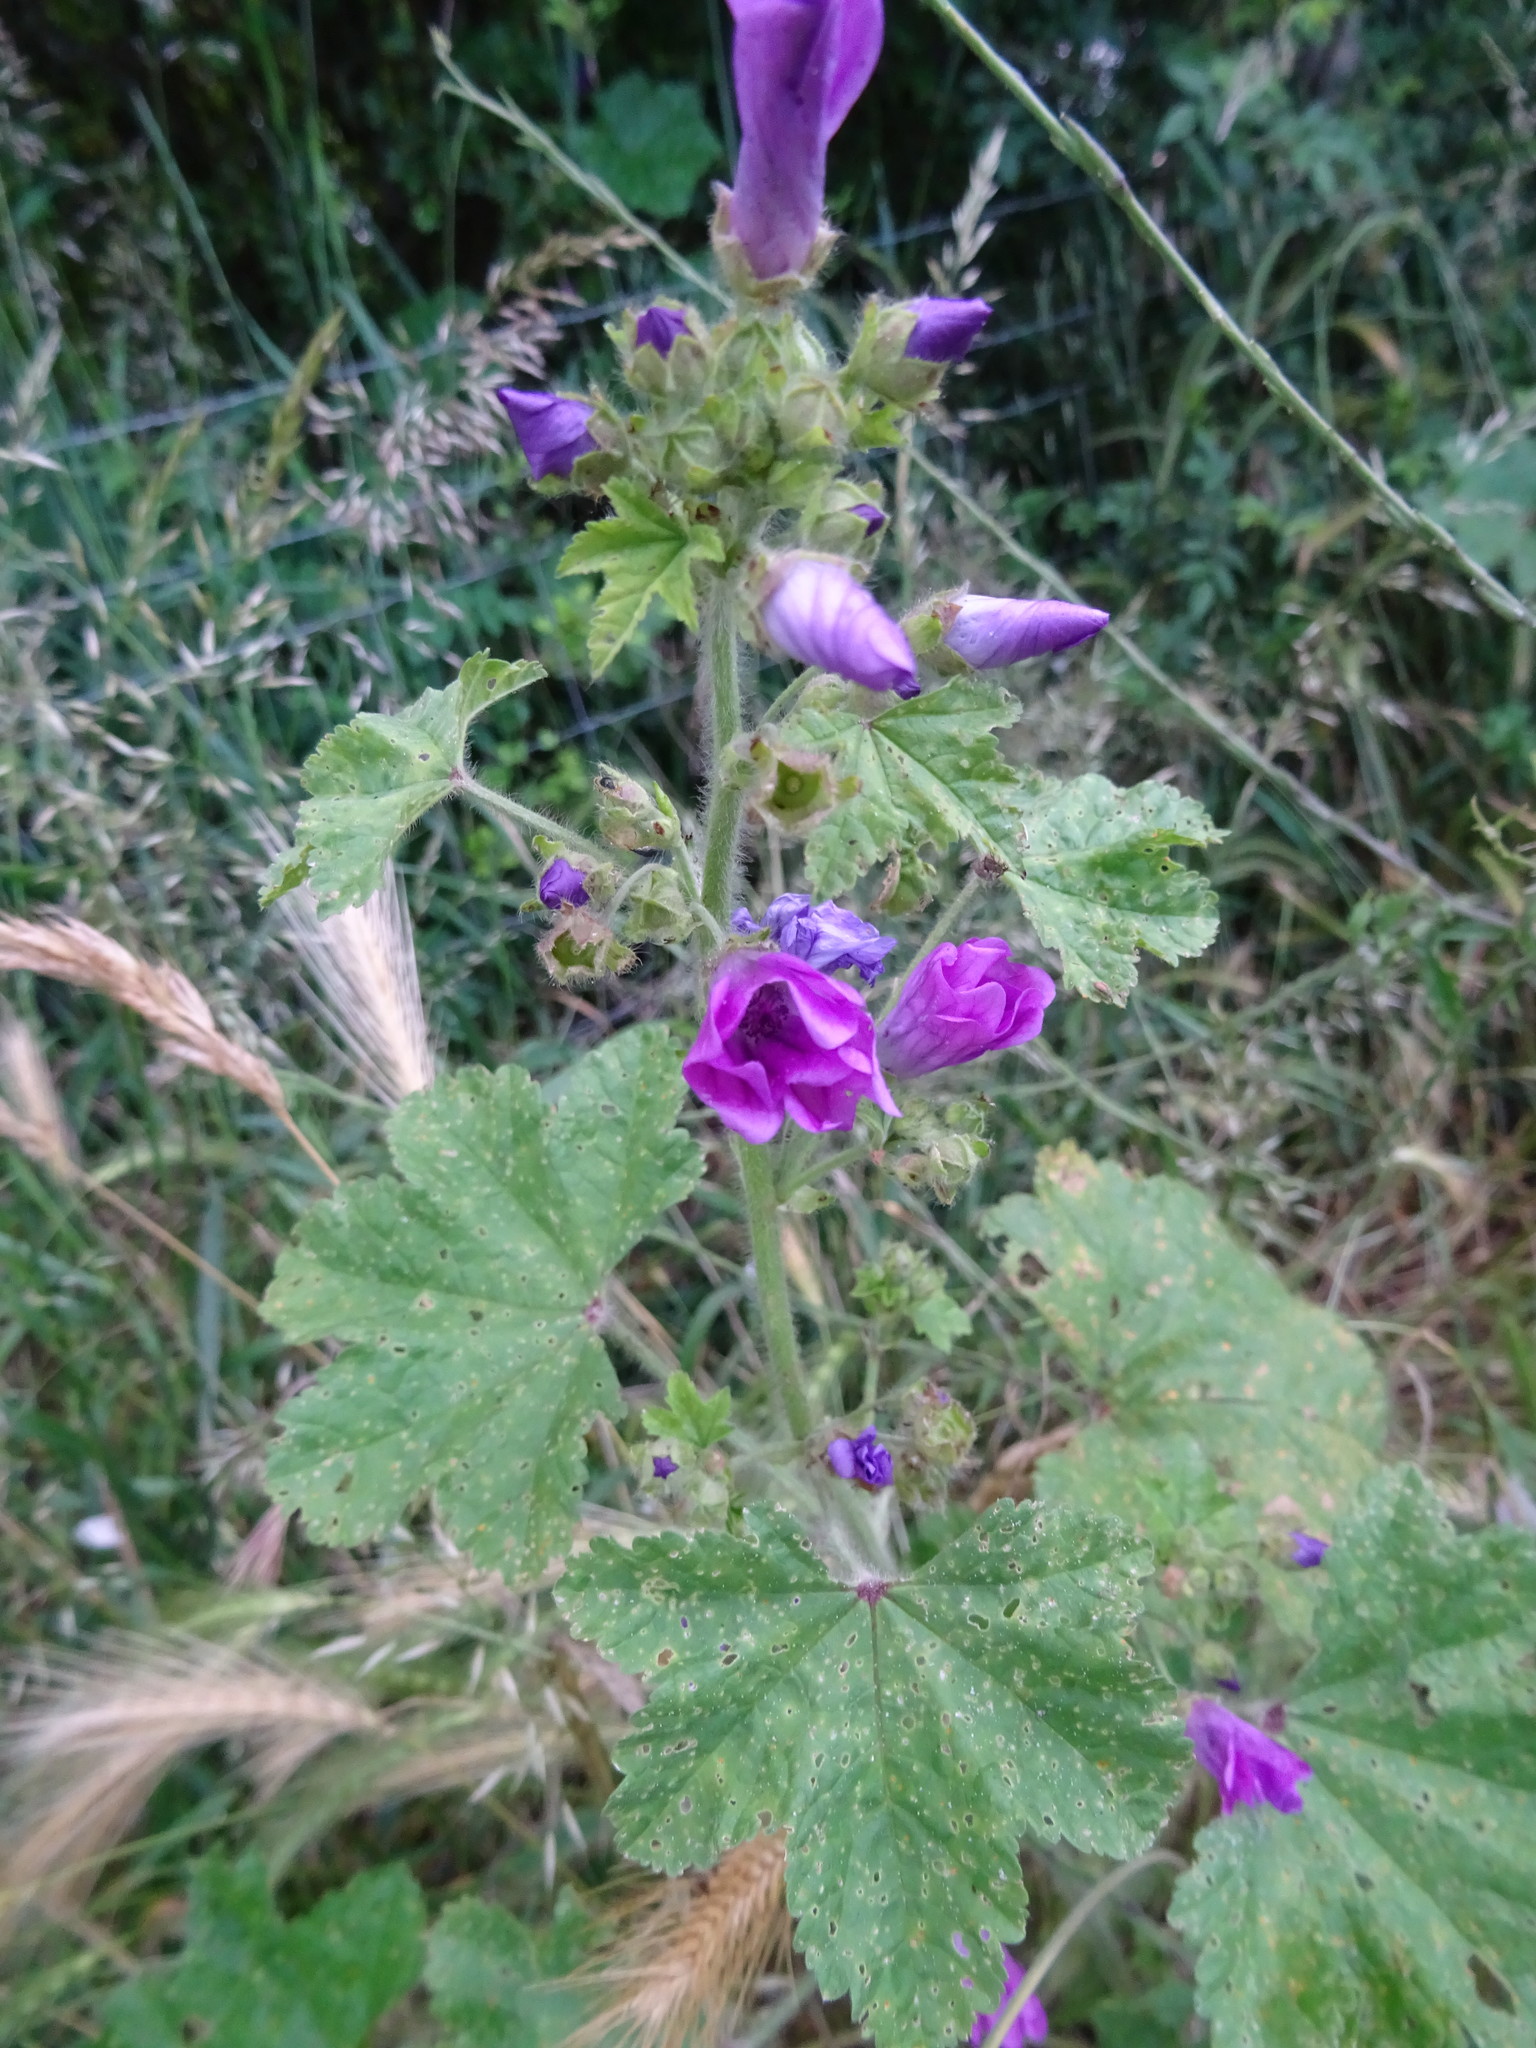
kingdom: Plantae
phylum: Tracheophyta
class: Magnoliopsida
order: Malvales
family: Malvaceae
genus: Malva
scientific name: Malva sylvestris
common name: Common mallow
